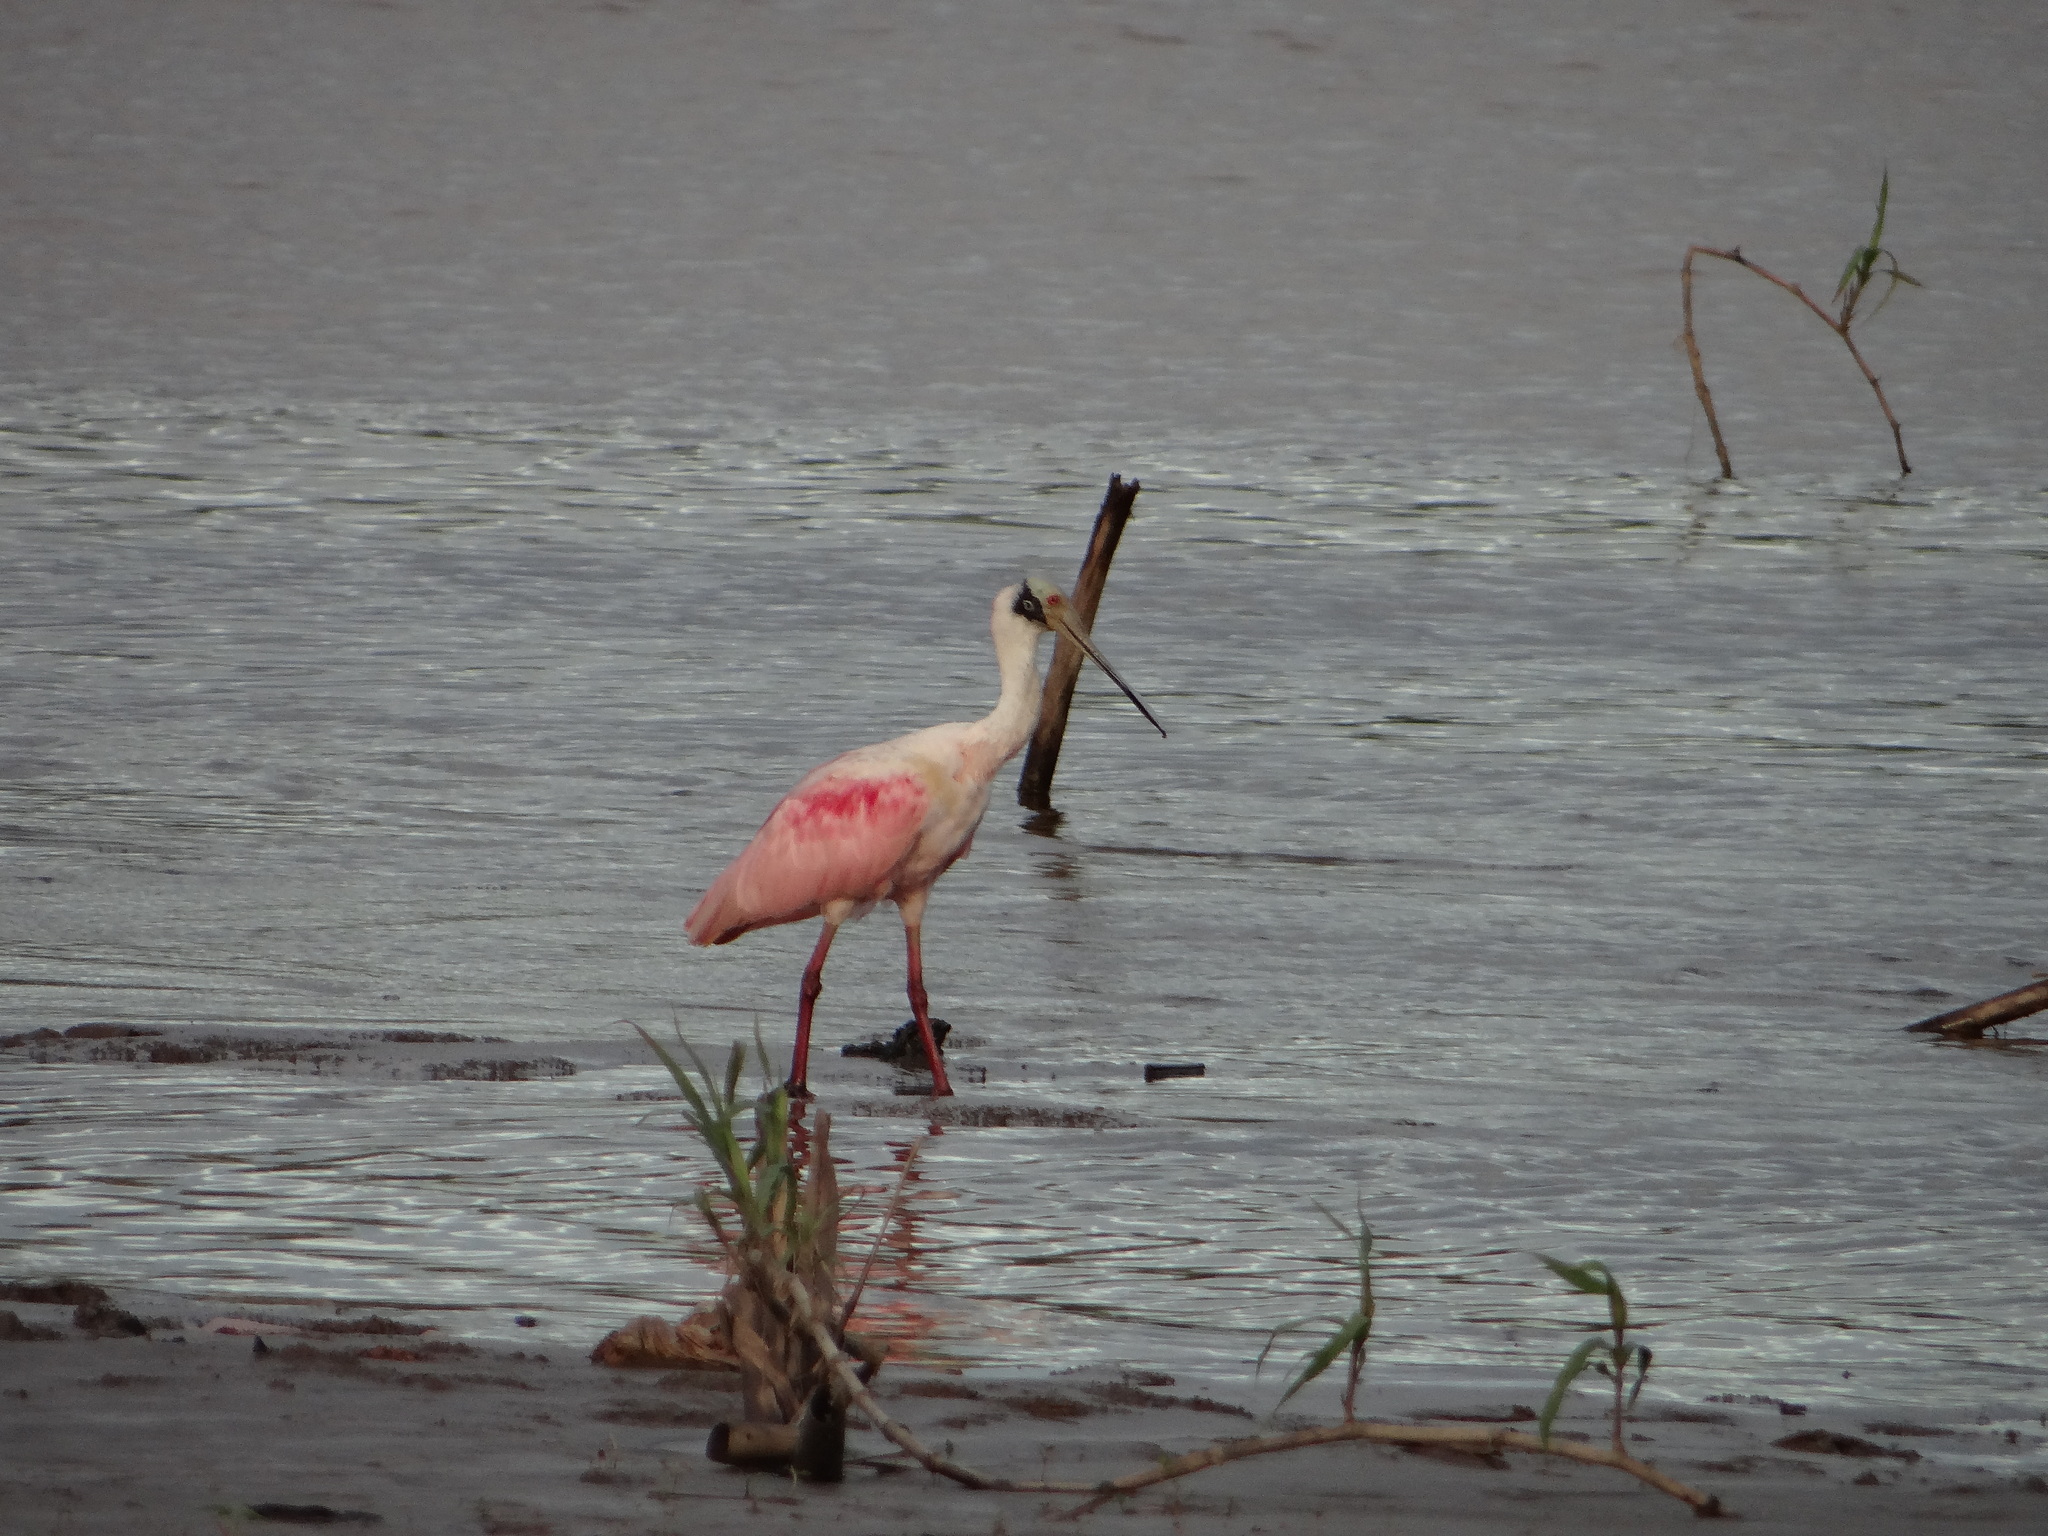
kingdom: Animalia
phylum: Chordata
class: Aves
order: Pelecaniformes
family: Threskiornithidae
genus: Platalea
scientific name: Platalea ajaja
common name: Roseate spoonbill
